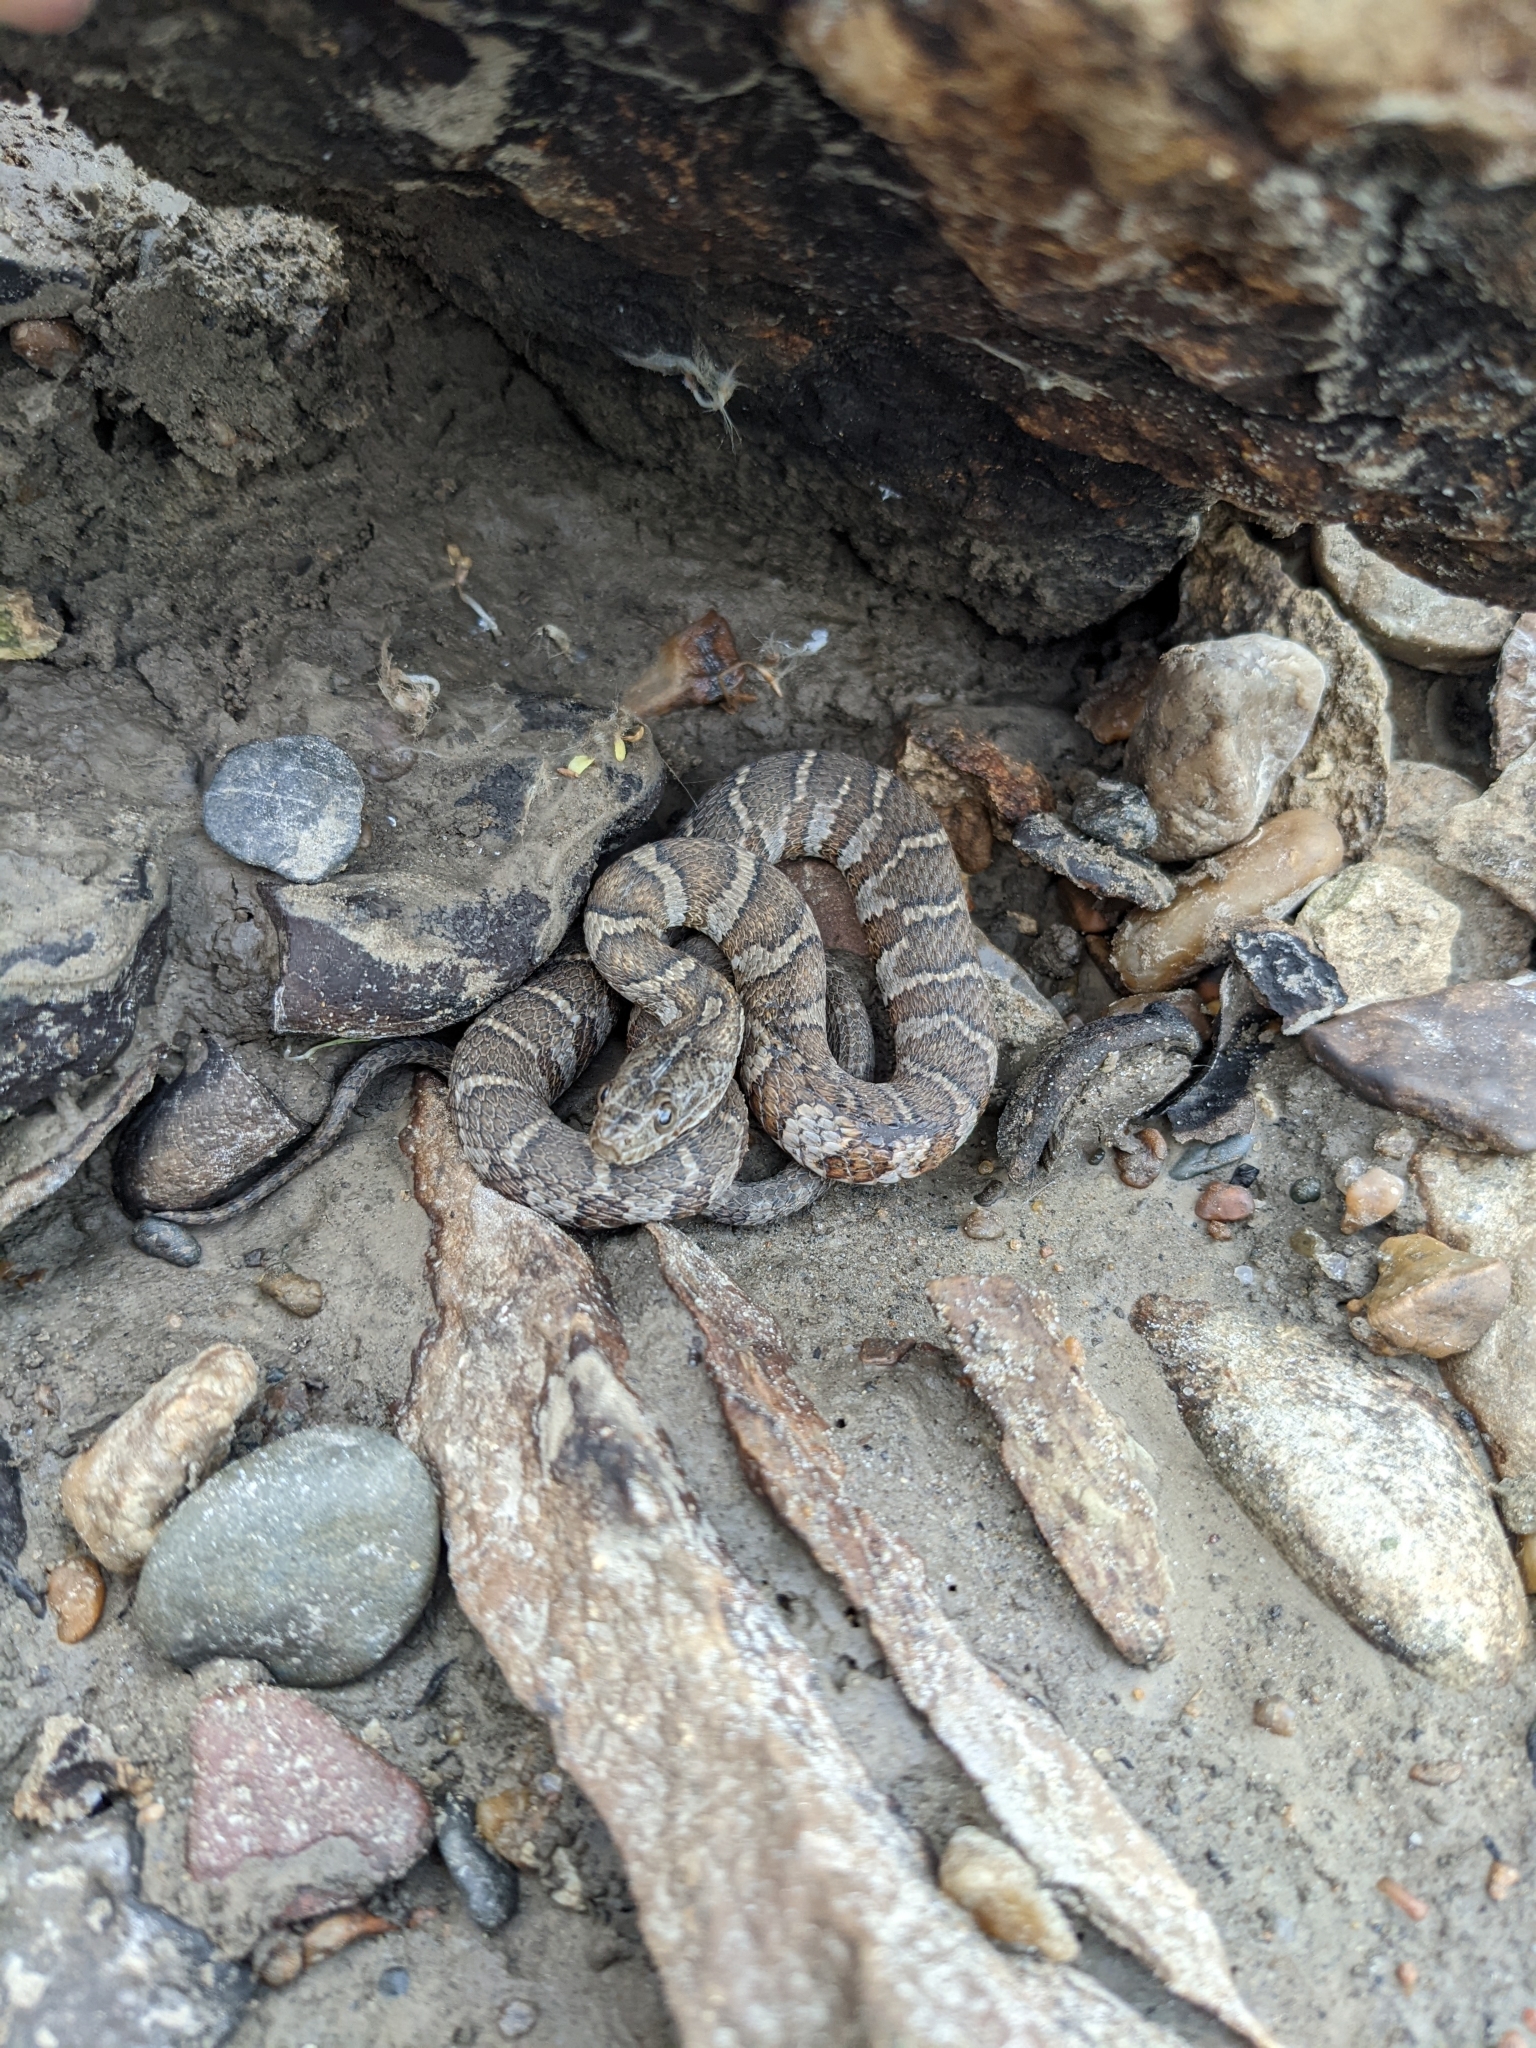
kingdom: Animalia
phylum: Chordata
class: Squamata
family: Colubridae
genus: Nerodia
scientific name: Nerodia sipedon
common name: Northern water snake
